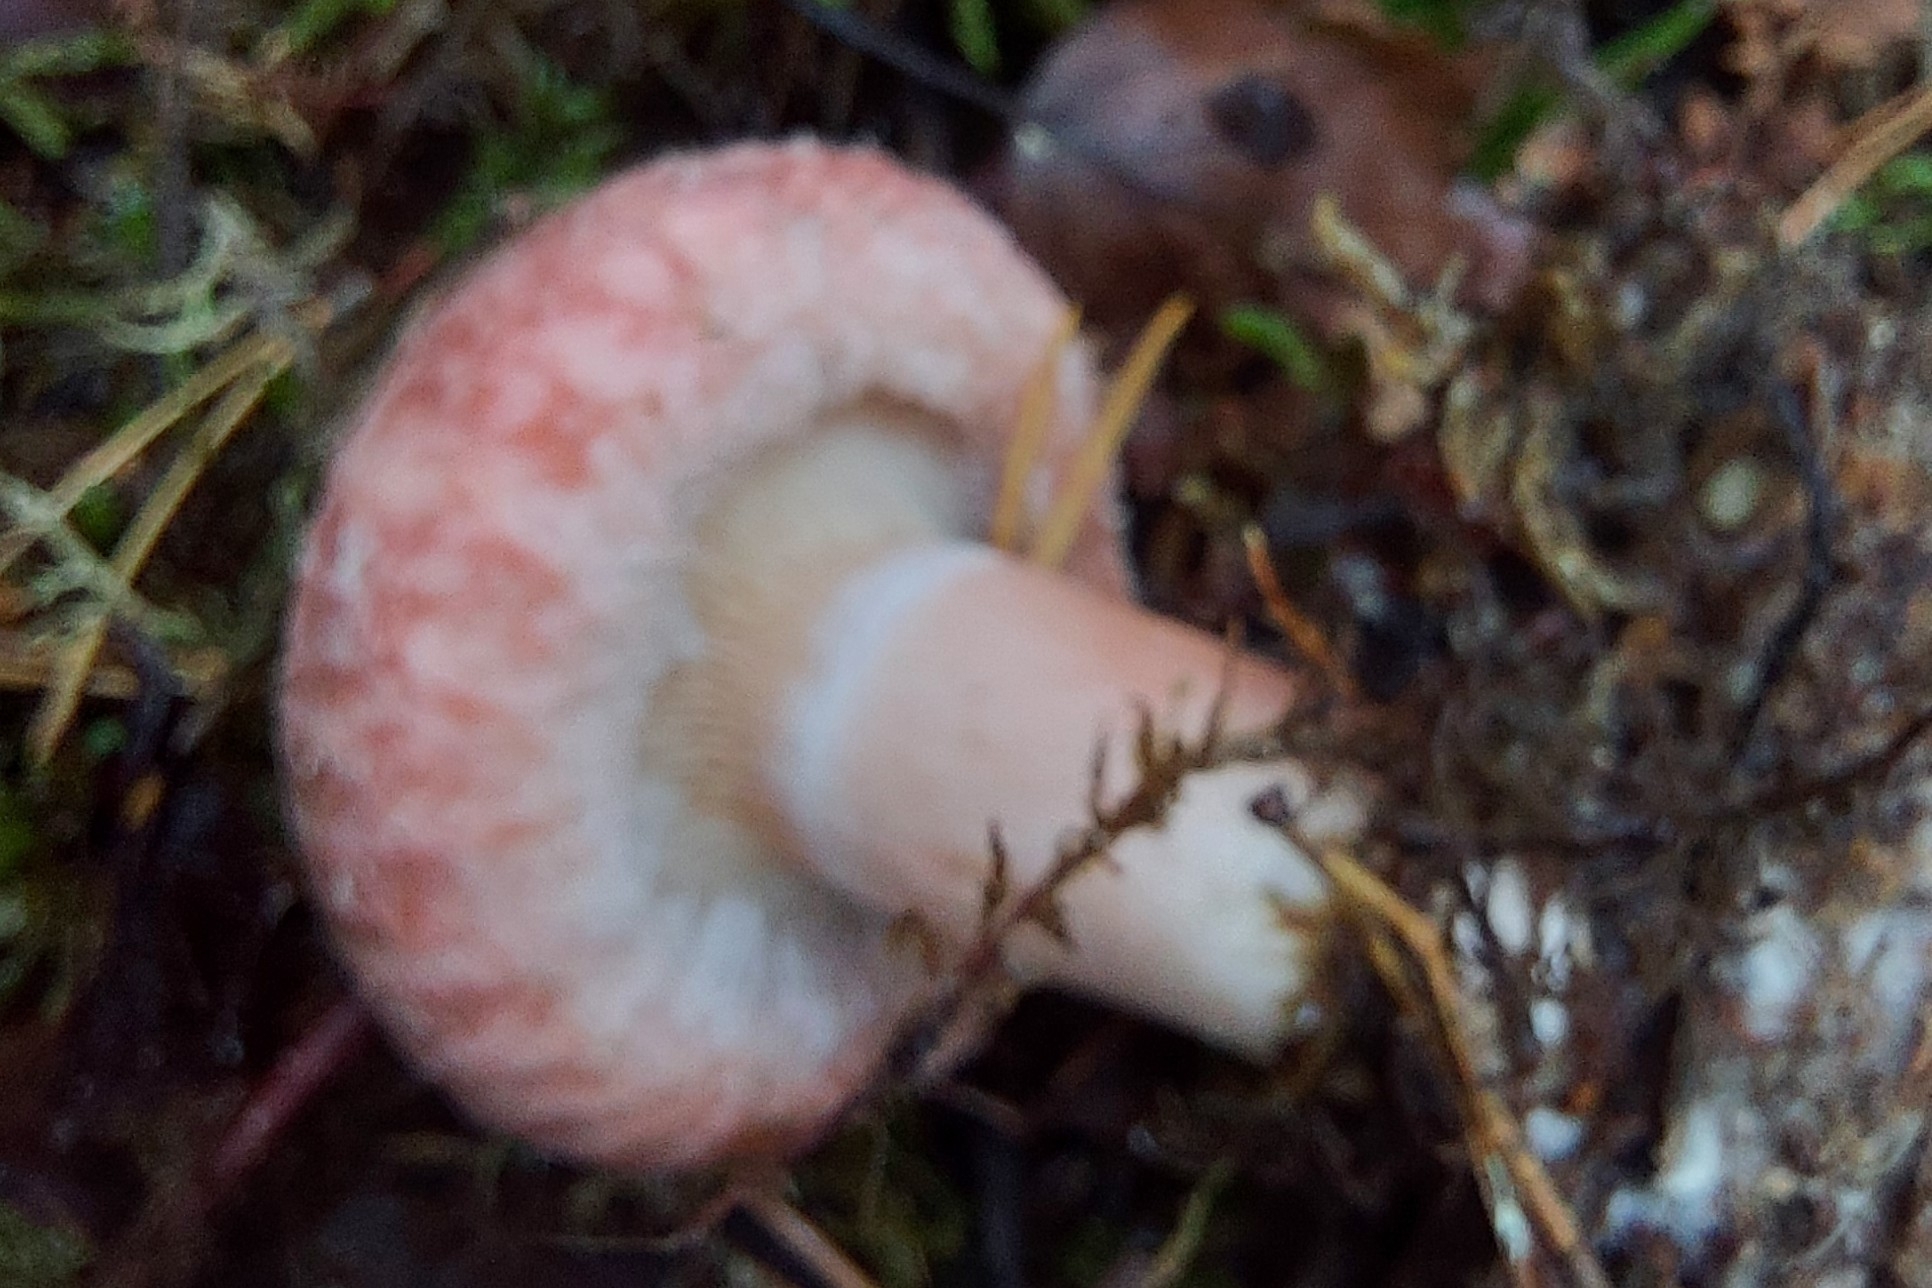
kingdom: Fungi
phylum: Basidiomycota
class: Agaricomycetes
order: Russulales
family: Russulaceae
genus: Lactarius
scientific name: Lactarius torminosus
